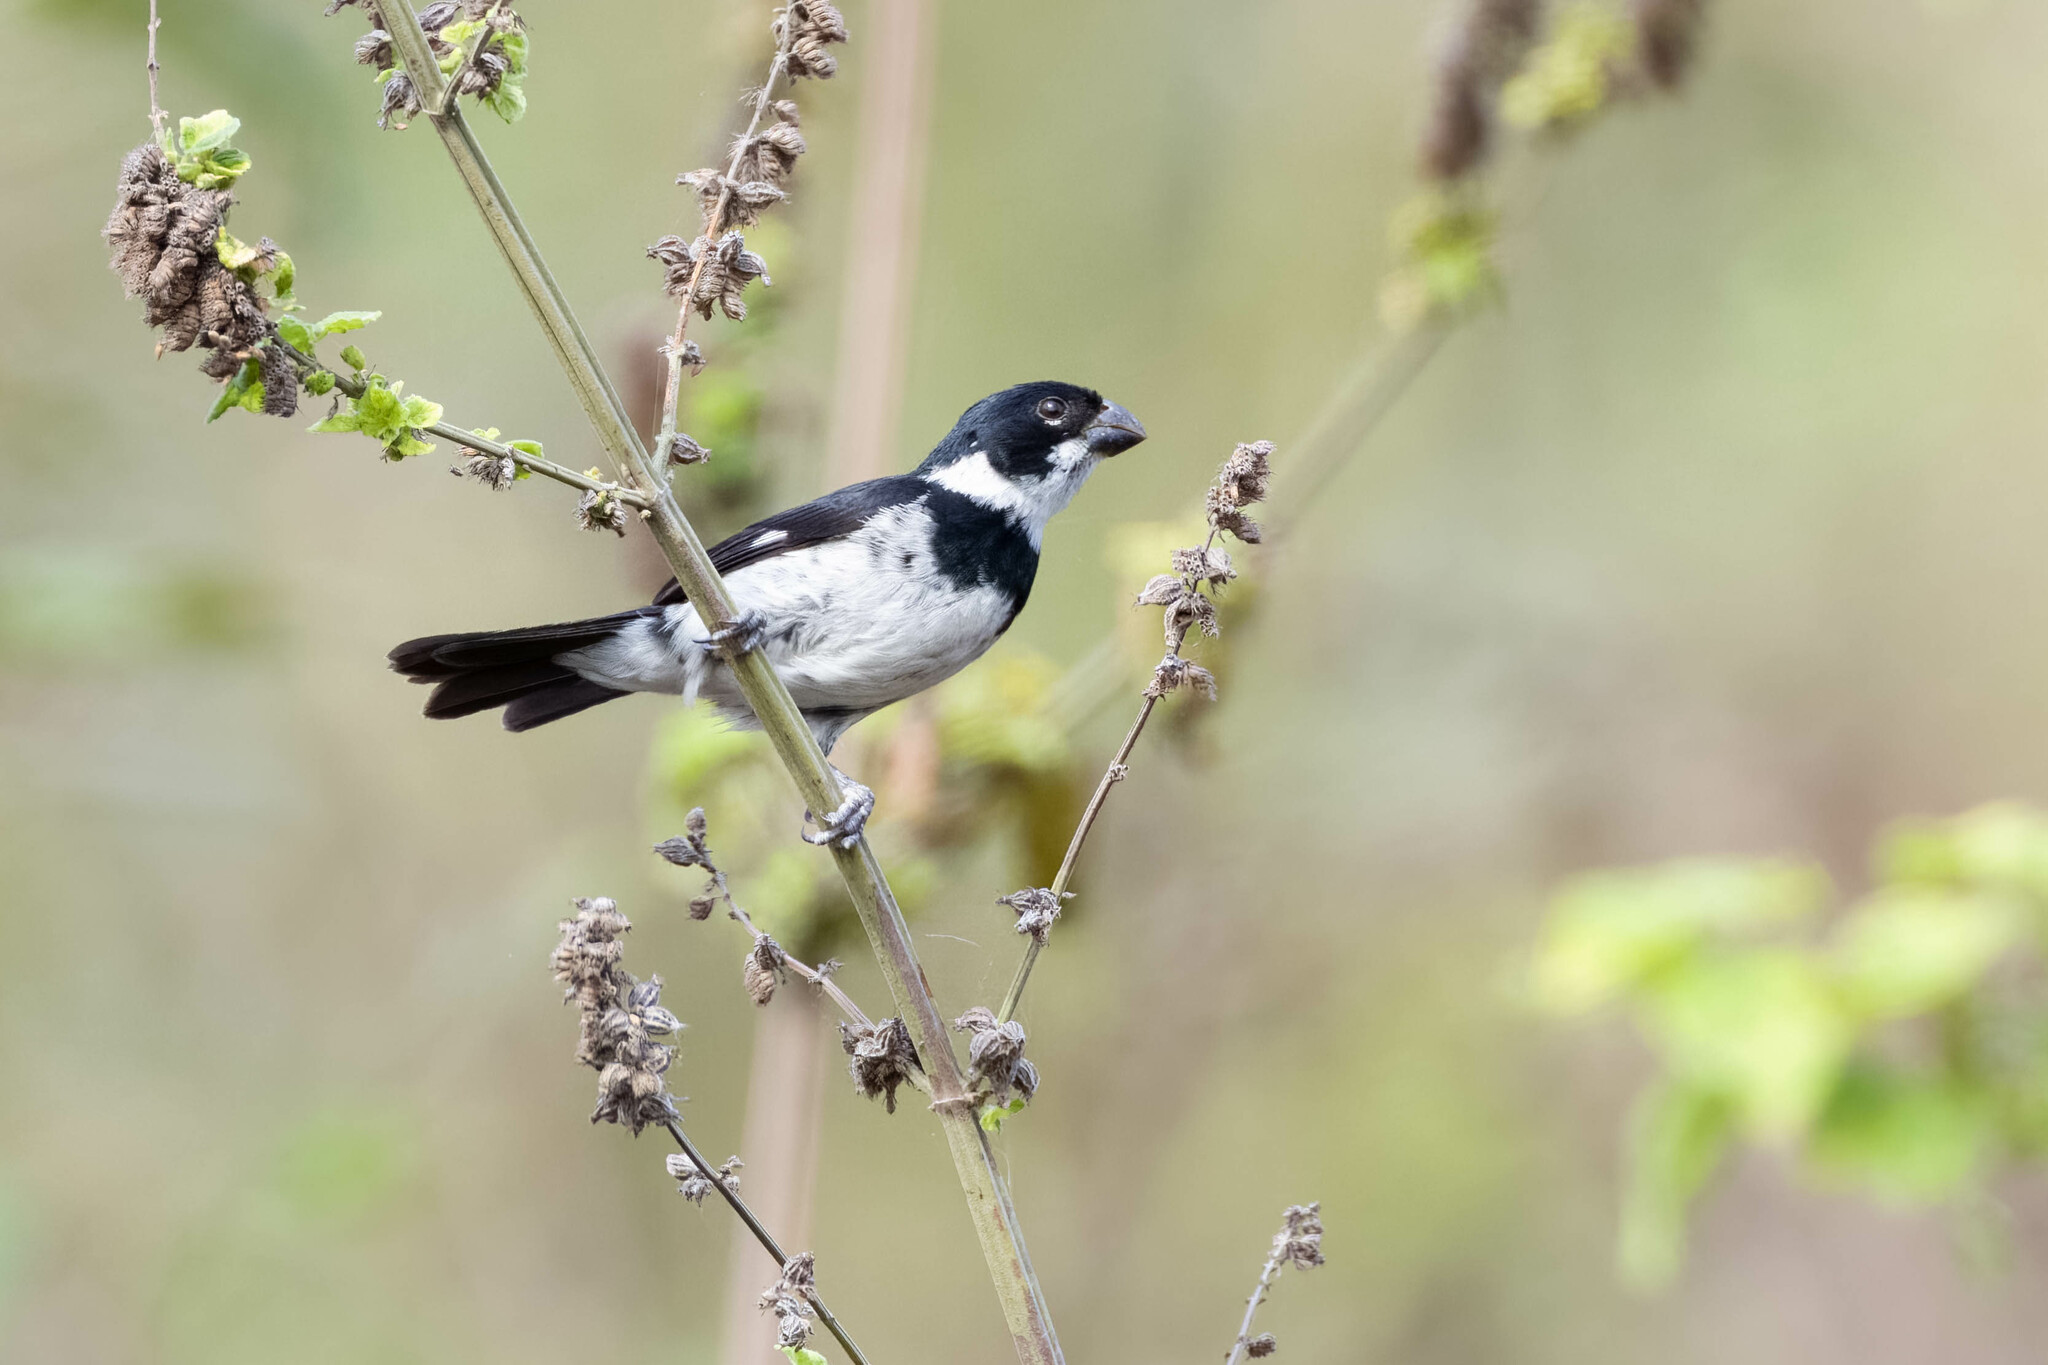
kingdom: Animalia
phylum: Chordata
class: Aves
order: Passeriformes
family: Thraupidae
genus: Sporophila
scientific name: Sporophila corvina
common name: Variable seedeater
